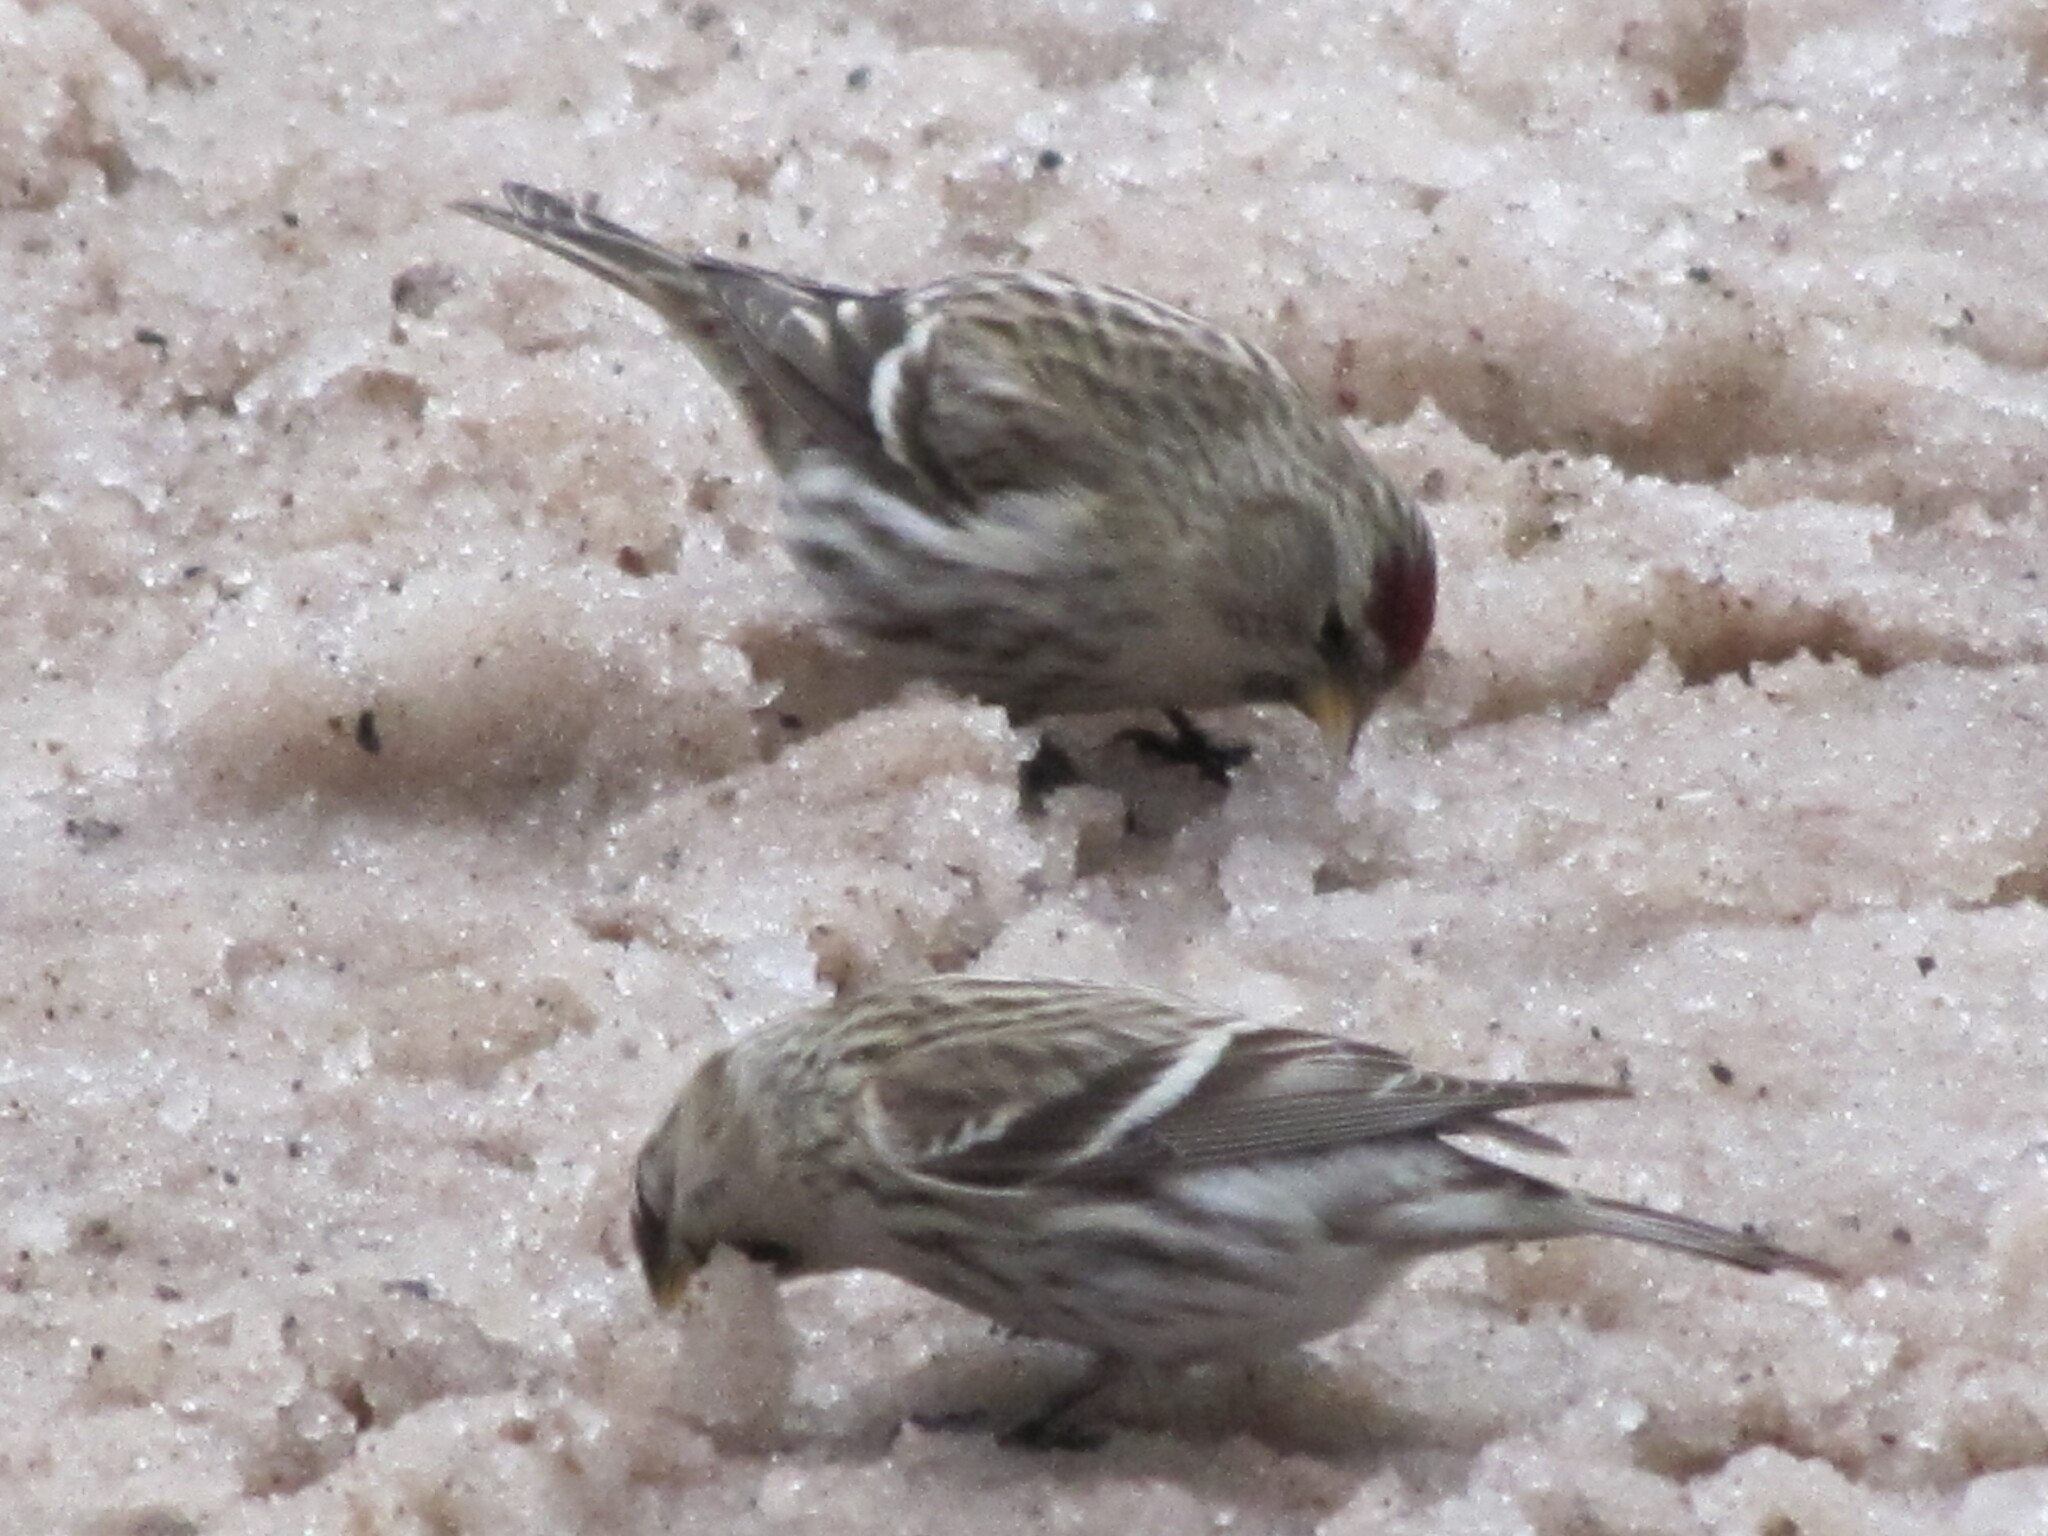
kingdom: Animalia
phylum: Chordata
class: Aves
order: Passeriformes
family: Fringillidae
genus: Acanthis
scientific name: Acanthis flammea
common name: Common redpoll
